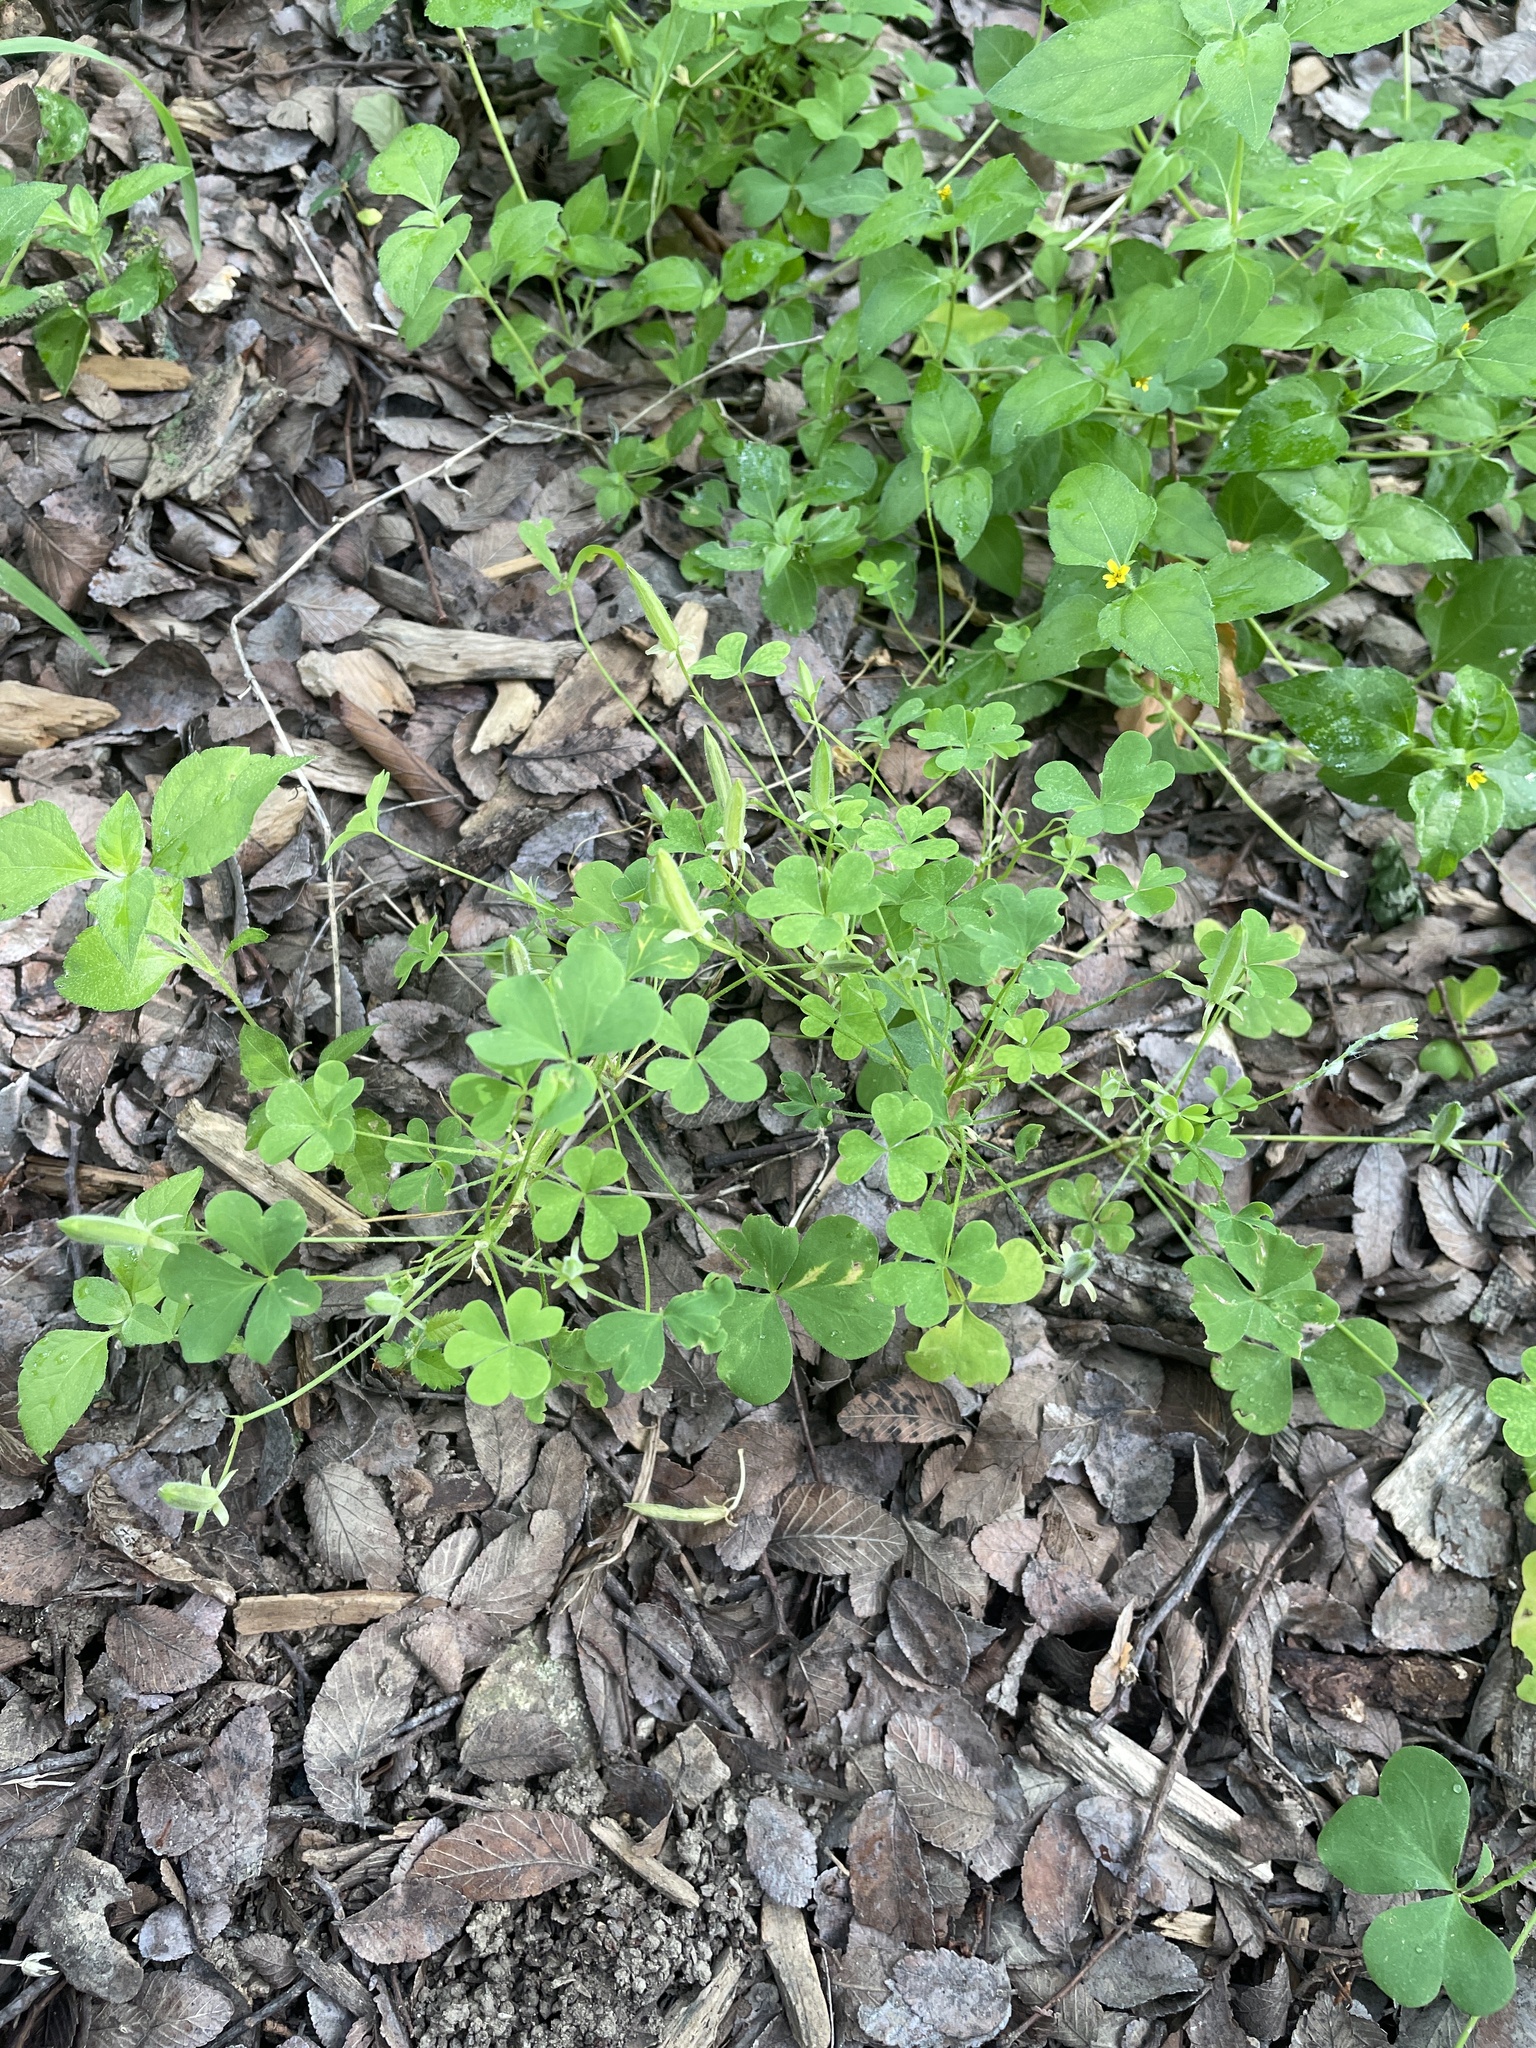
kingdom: Plantae
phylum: Tracheophyta
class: Magnoliopsida
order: Oxalidales
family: Oxalidaceae
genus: Oxalis
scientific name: Oxalis dillenii
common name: Sussex yellow-sorrel
